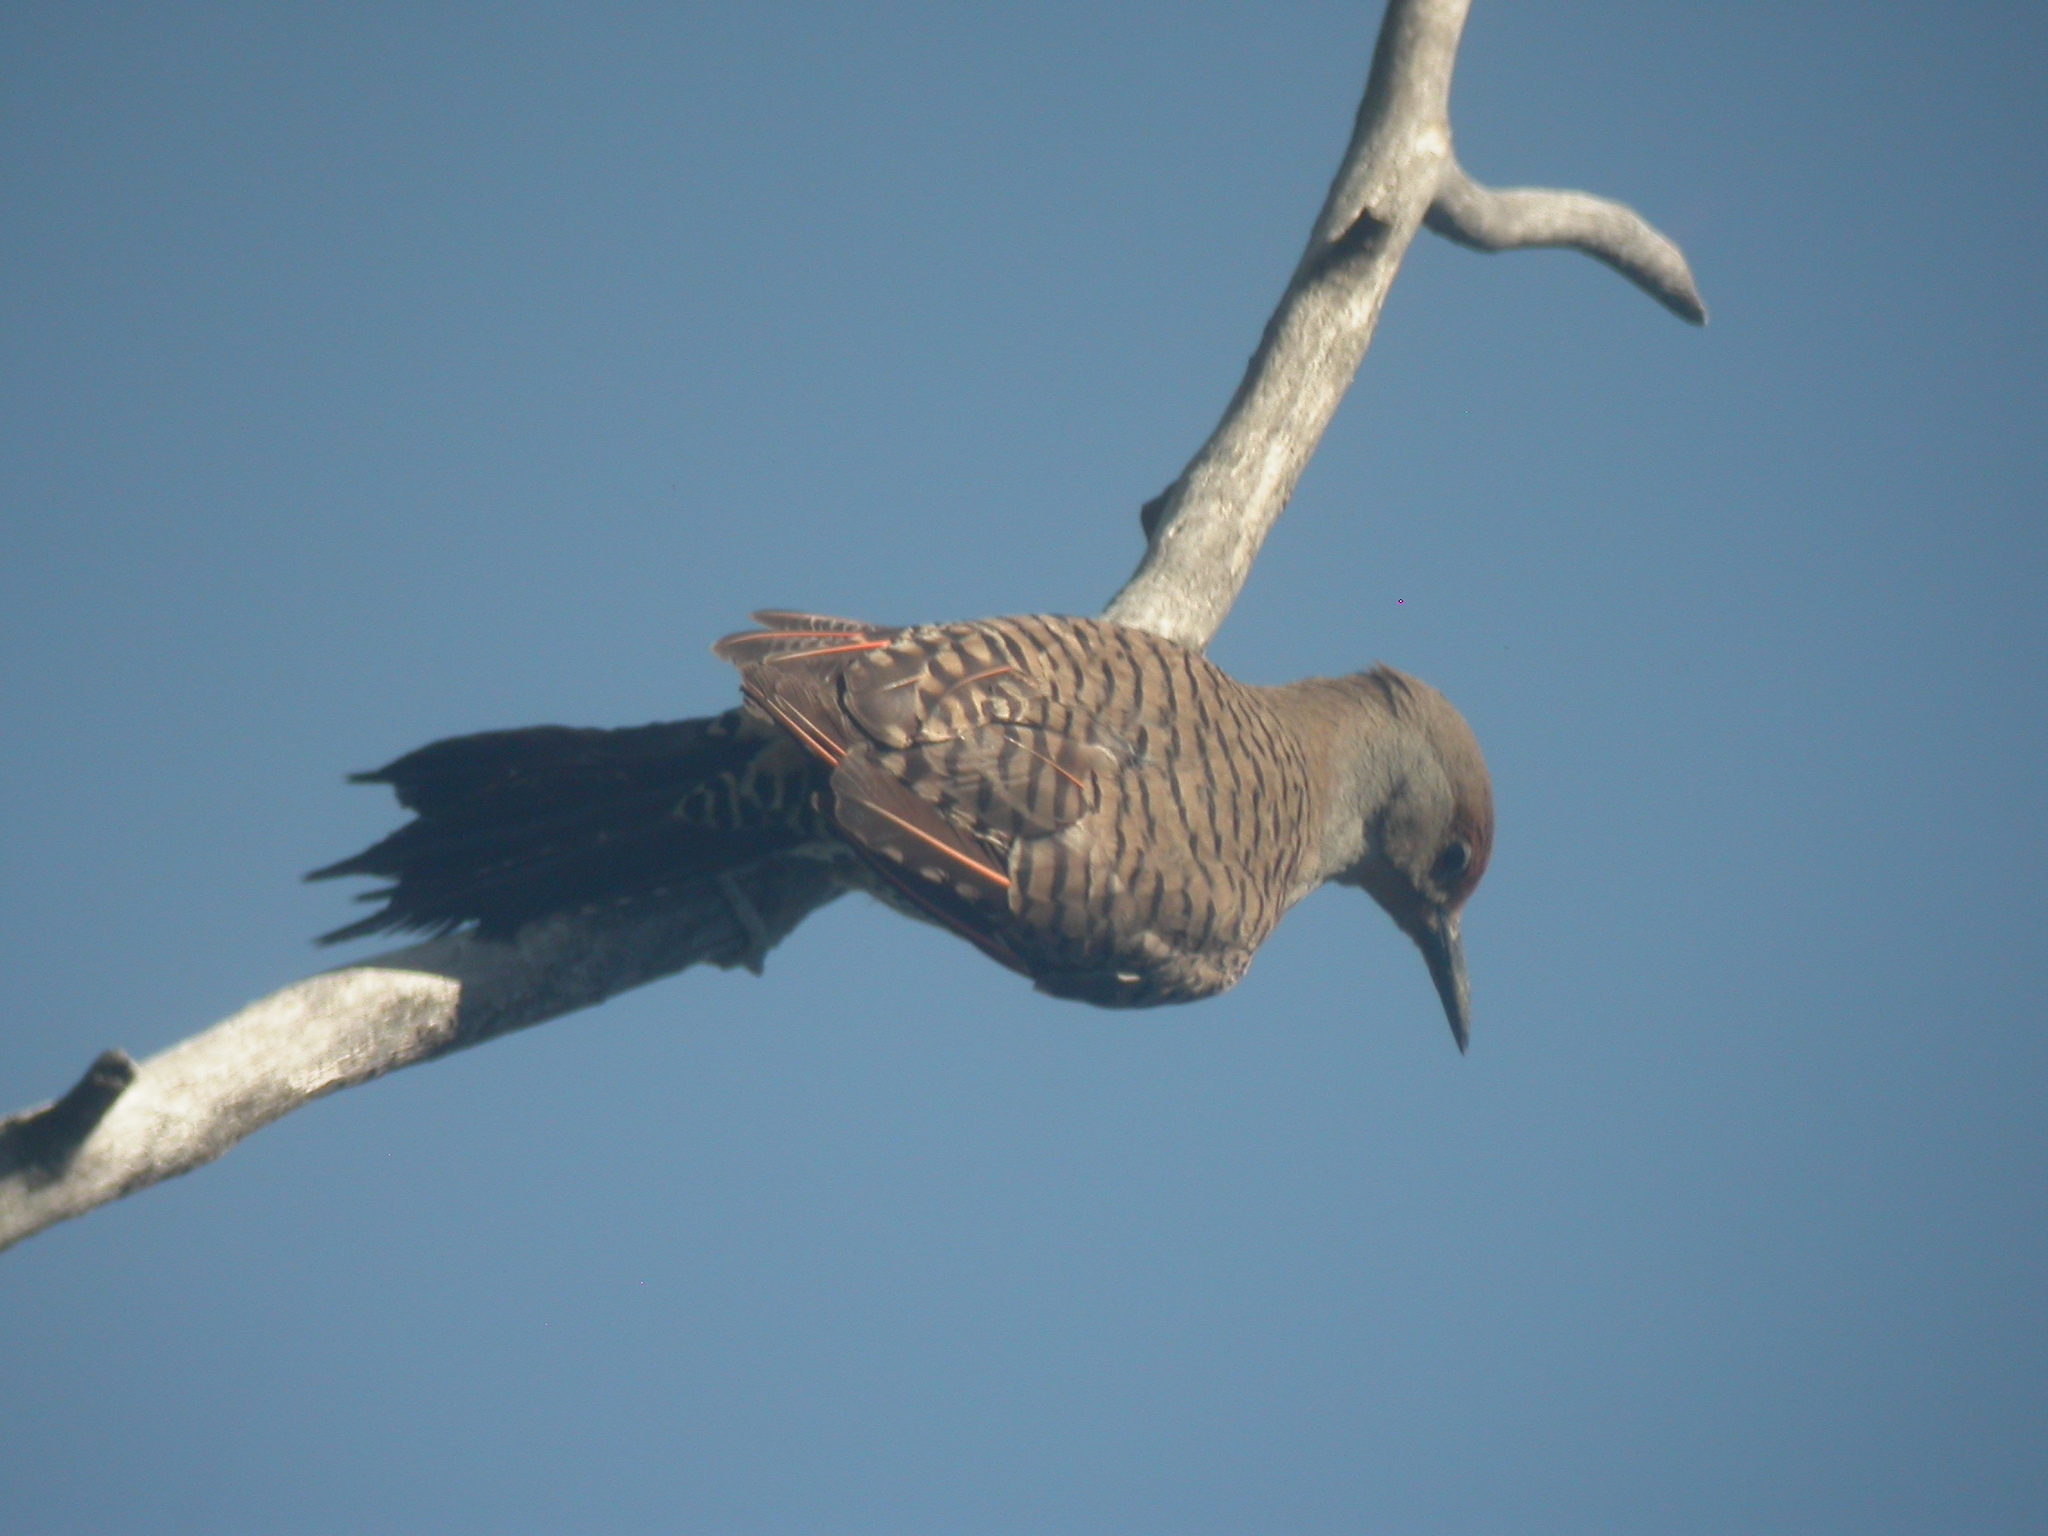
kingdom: Animalia
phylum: Chordata
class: Aves
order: Piciformes
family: Picidae
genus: Colaptes
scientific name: Colaptes auratus
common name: Northern flicker
